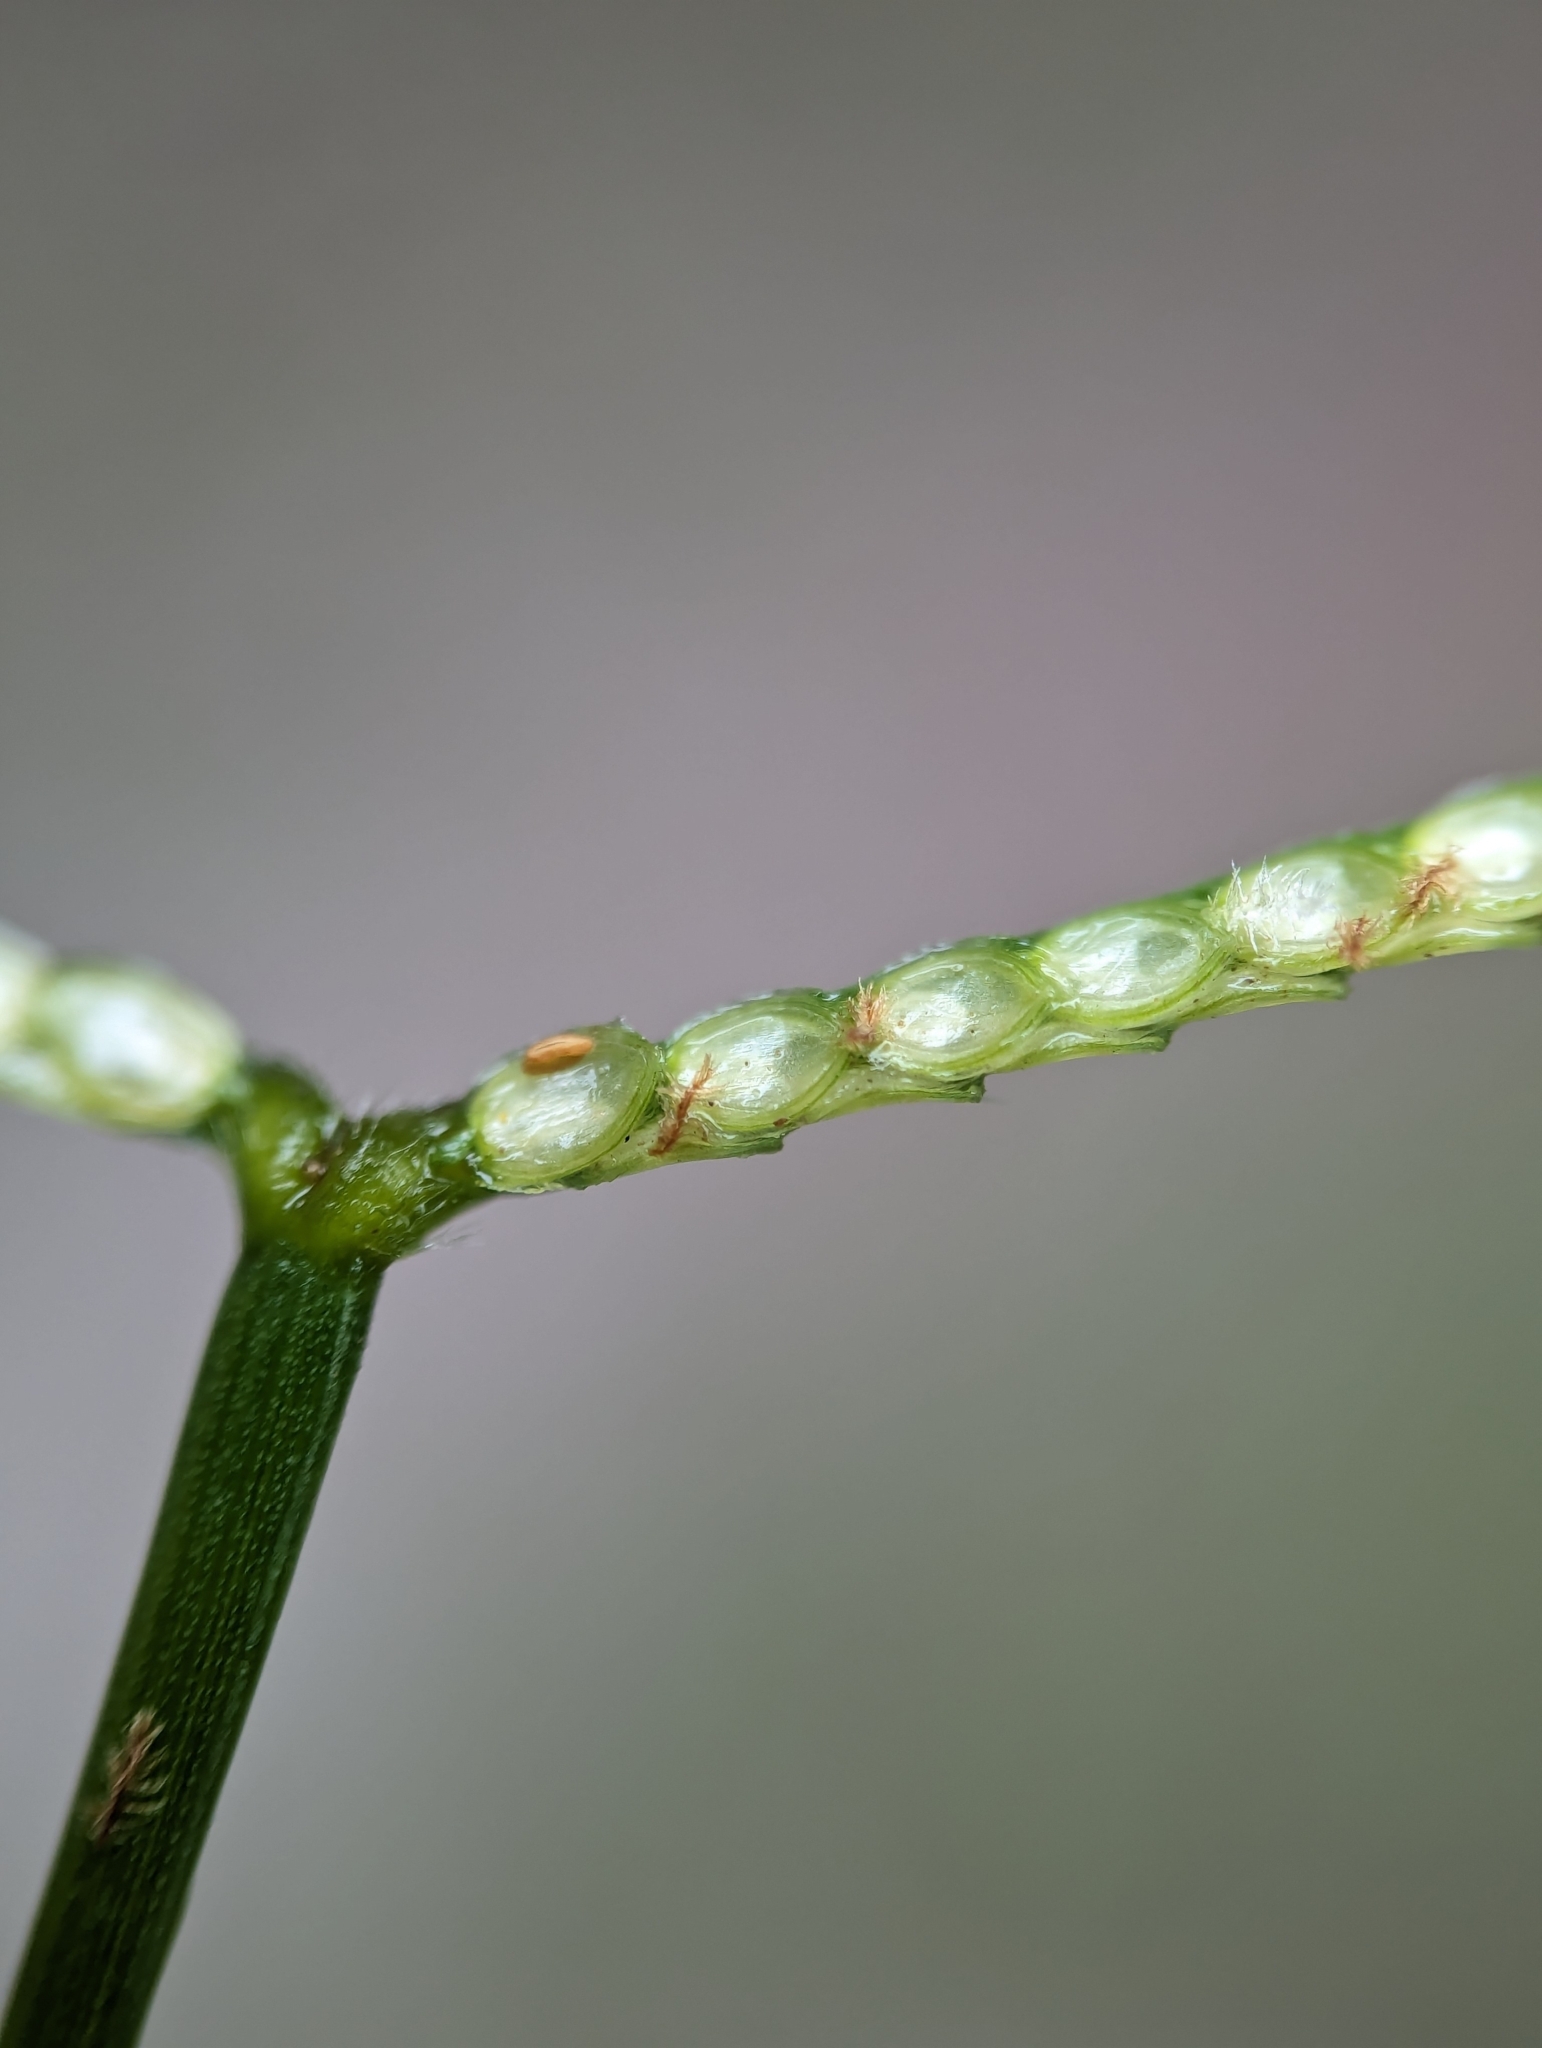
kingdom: Plantae
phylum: Tracheophyta
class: Liliopsida
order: Poales
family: Poaceae
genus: Paspalum
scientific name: Paspalum conjugatum
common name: Hilograss
